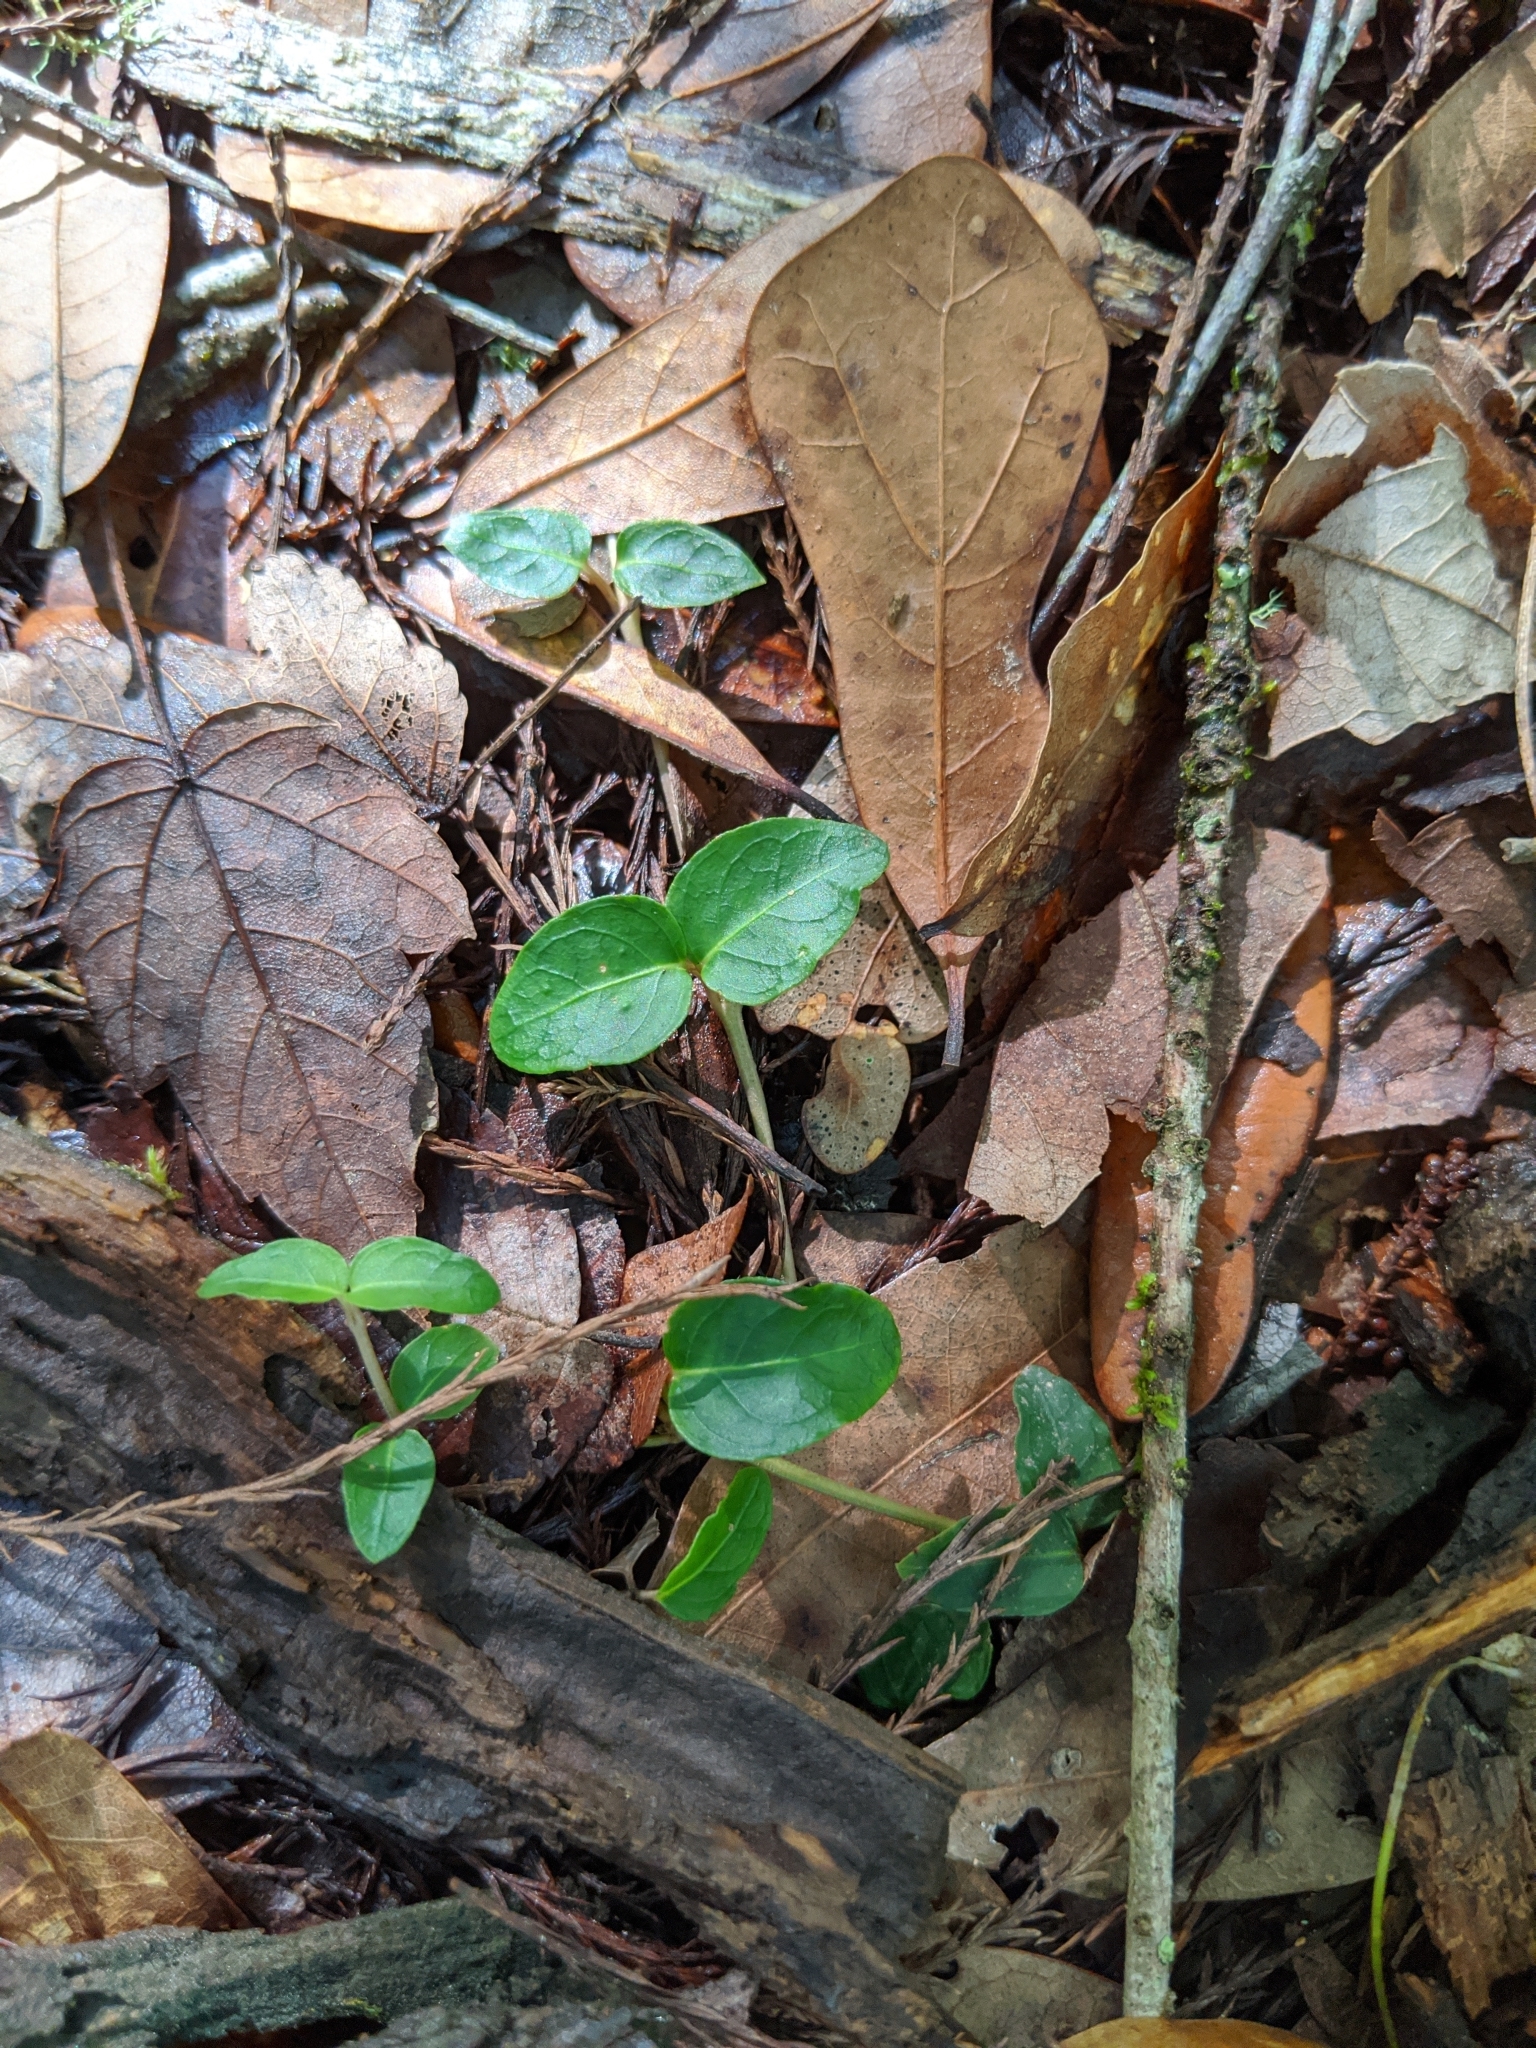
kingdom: Plantae
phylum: Tracheophyta
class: Magnoliopsida
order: Gentianales
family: Rubiaceae
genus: Mitchella
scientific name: Mitchella repens
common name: Partridge-berry
